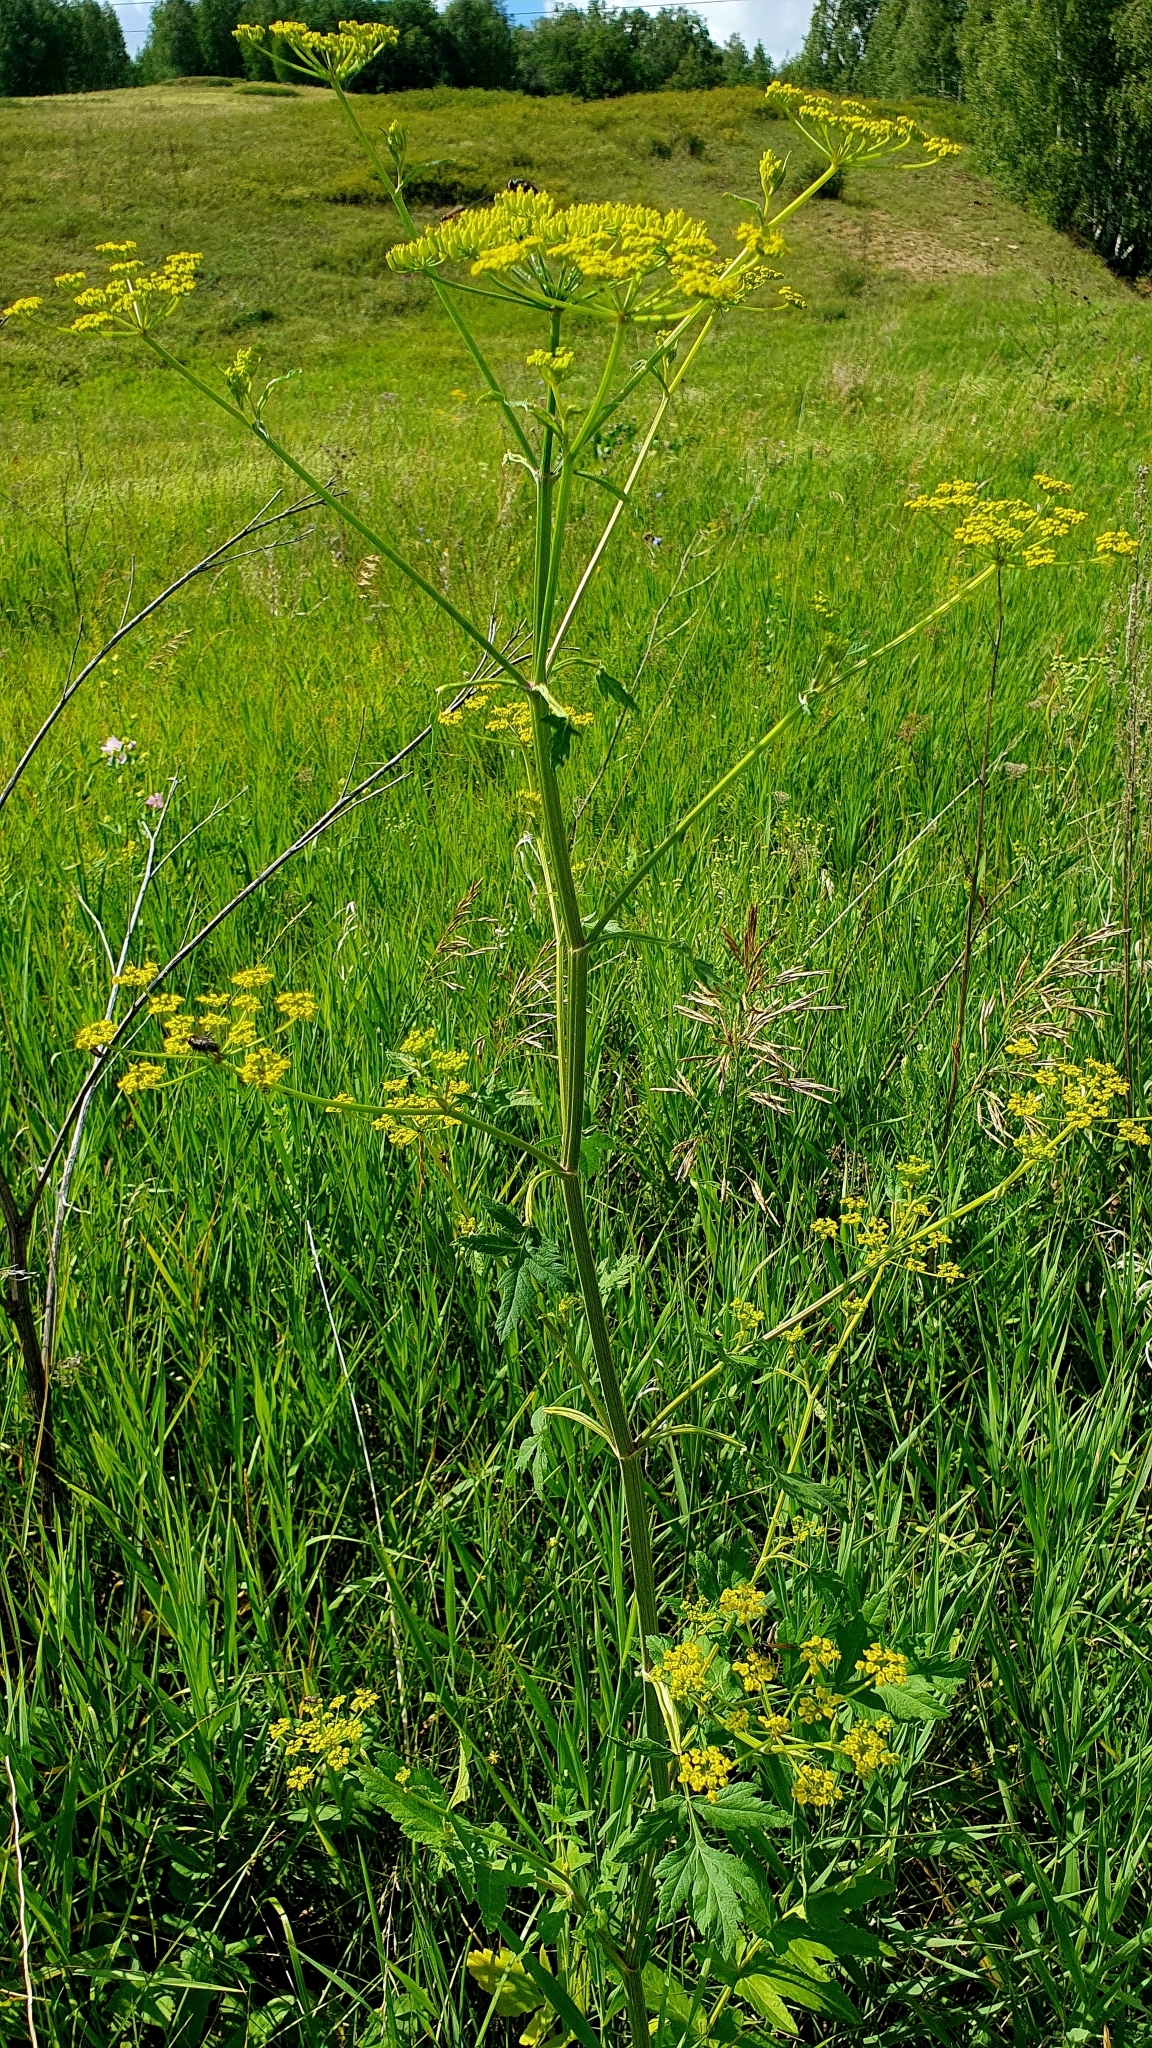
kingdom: Plantae
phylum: Tracheophyta
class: Magnoliopsida
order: Apiales
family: Apiaceae
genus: Pastinaca
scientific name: Pastinaca sativa
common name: Wild parsnip
